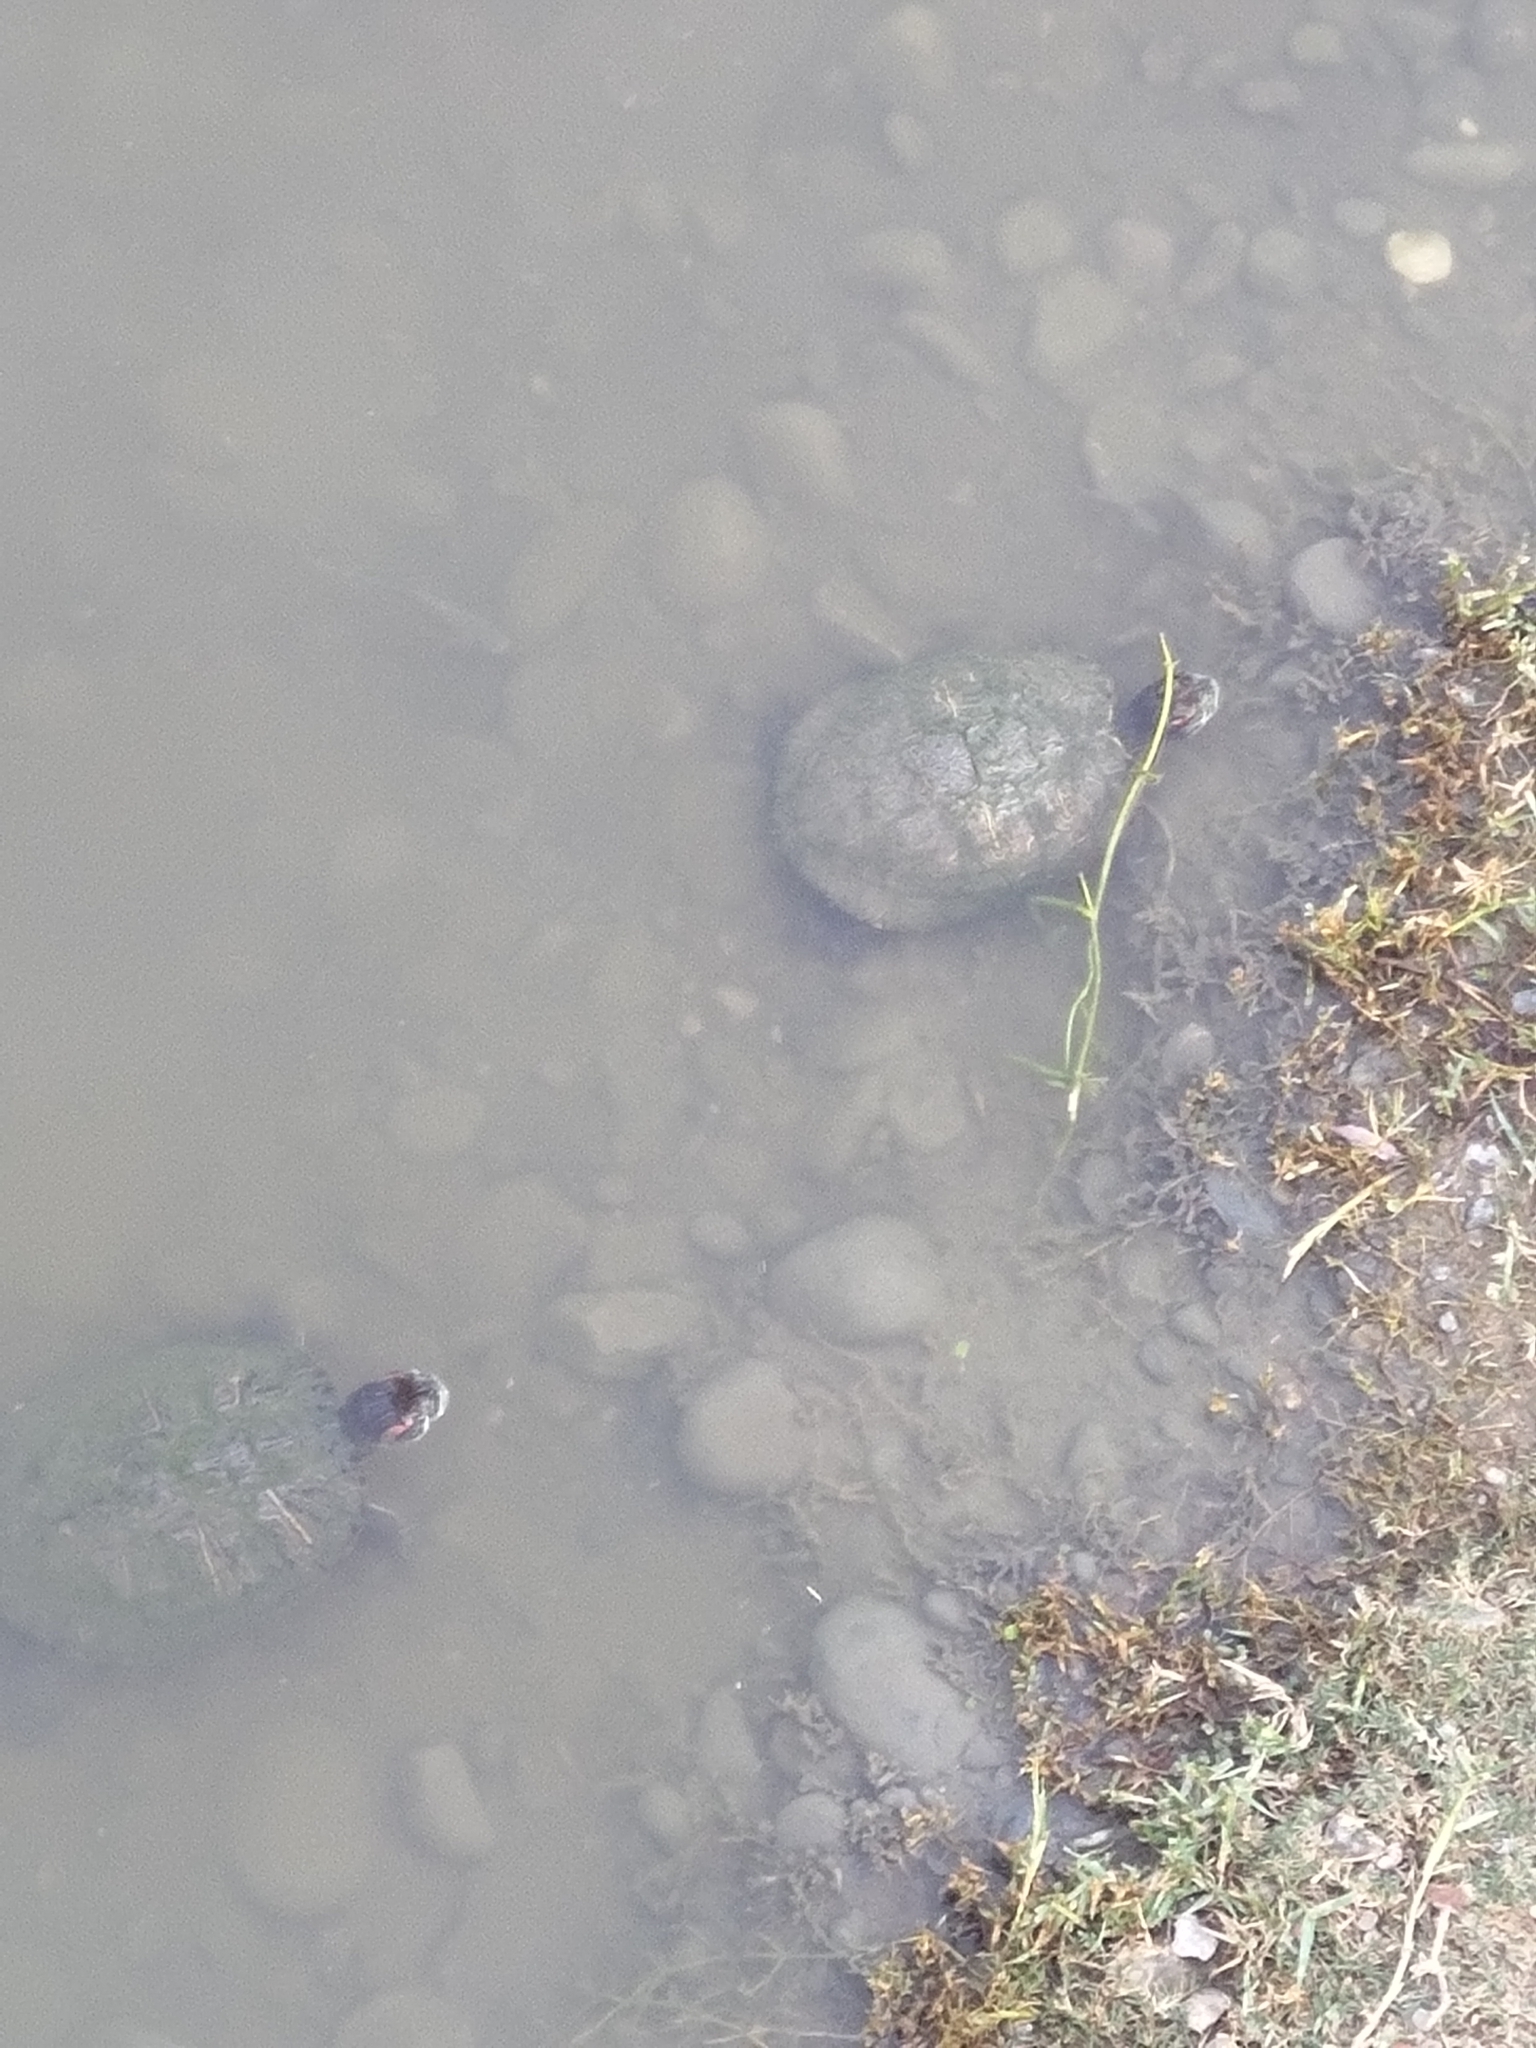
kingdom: Animalia
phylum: Chordata
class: Testudines
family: Emydidae
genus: Trachemys
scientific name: Trachemys scripta
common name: Slider
